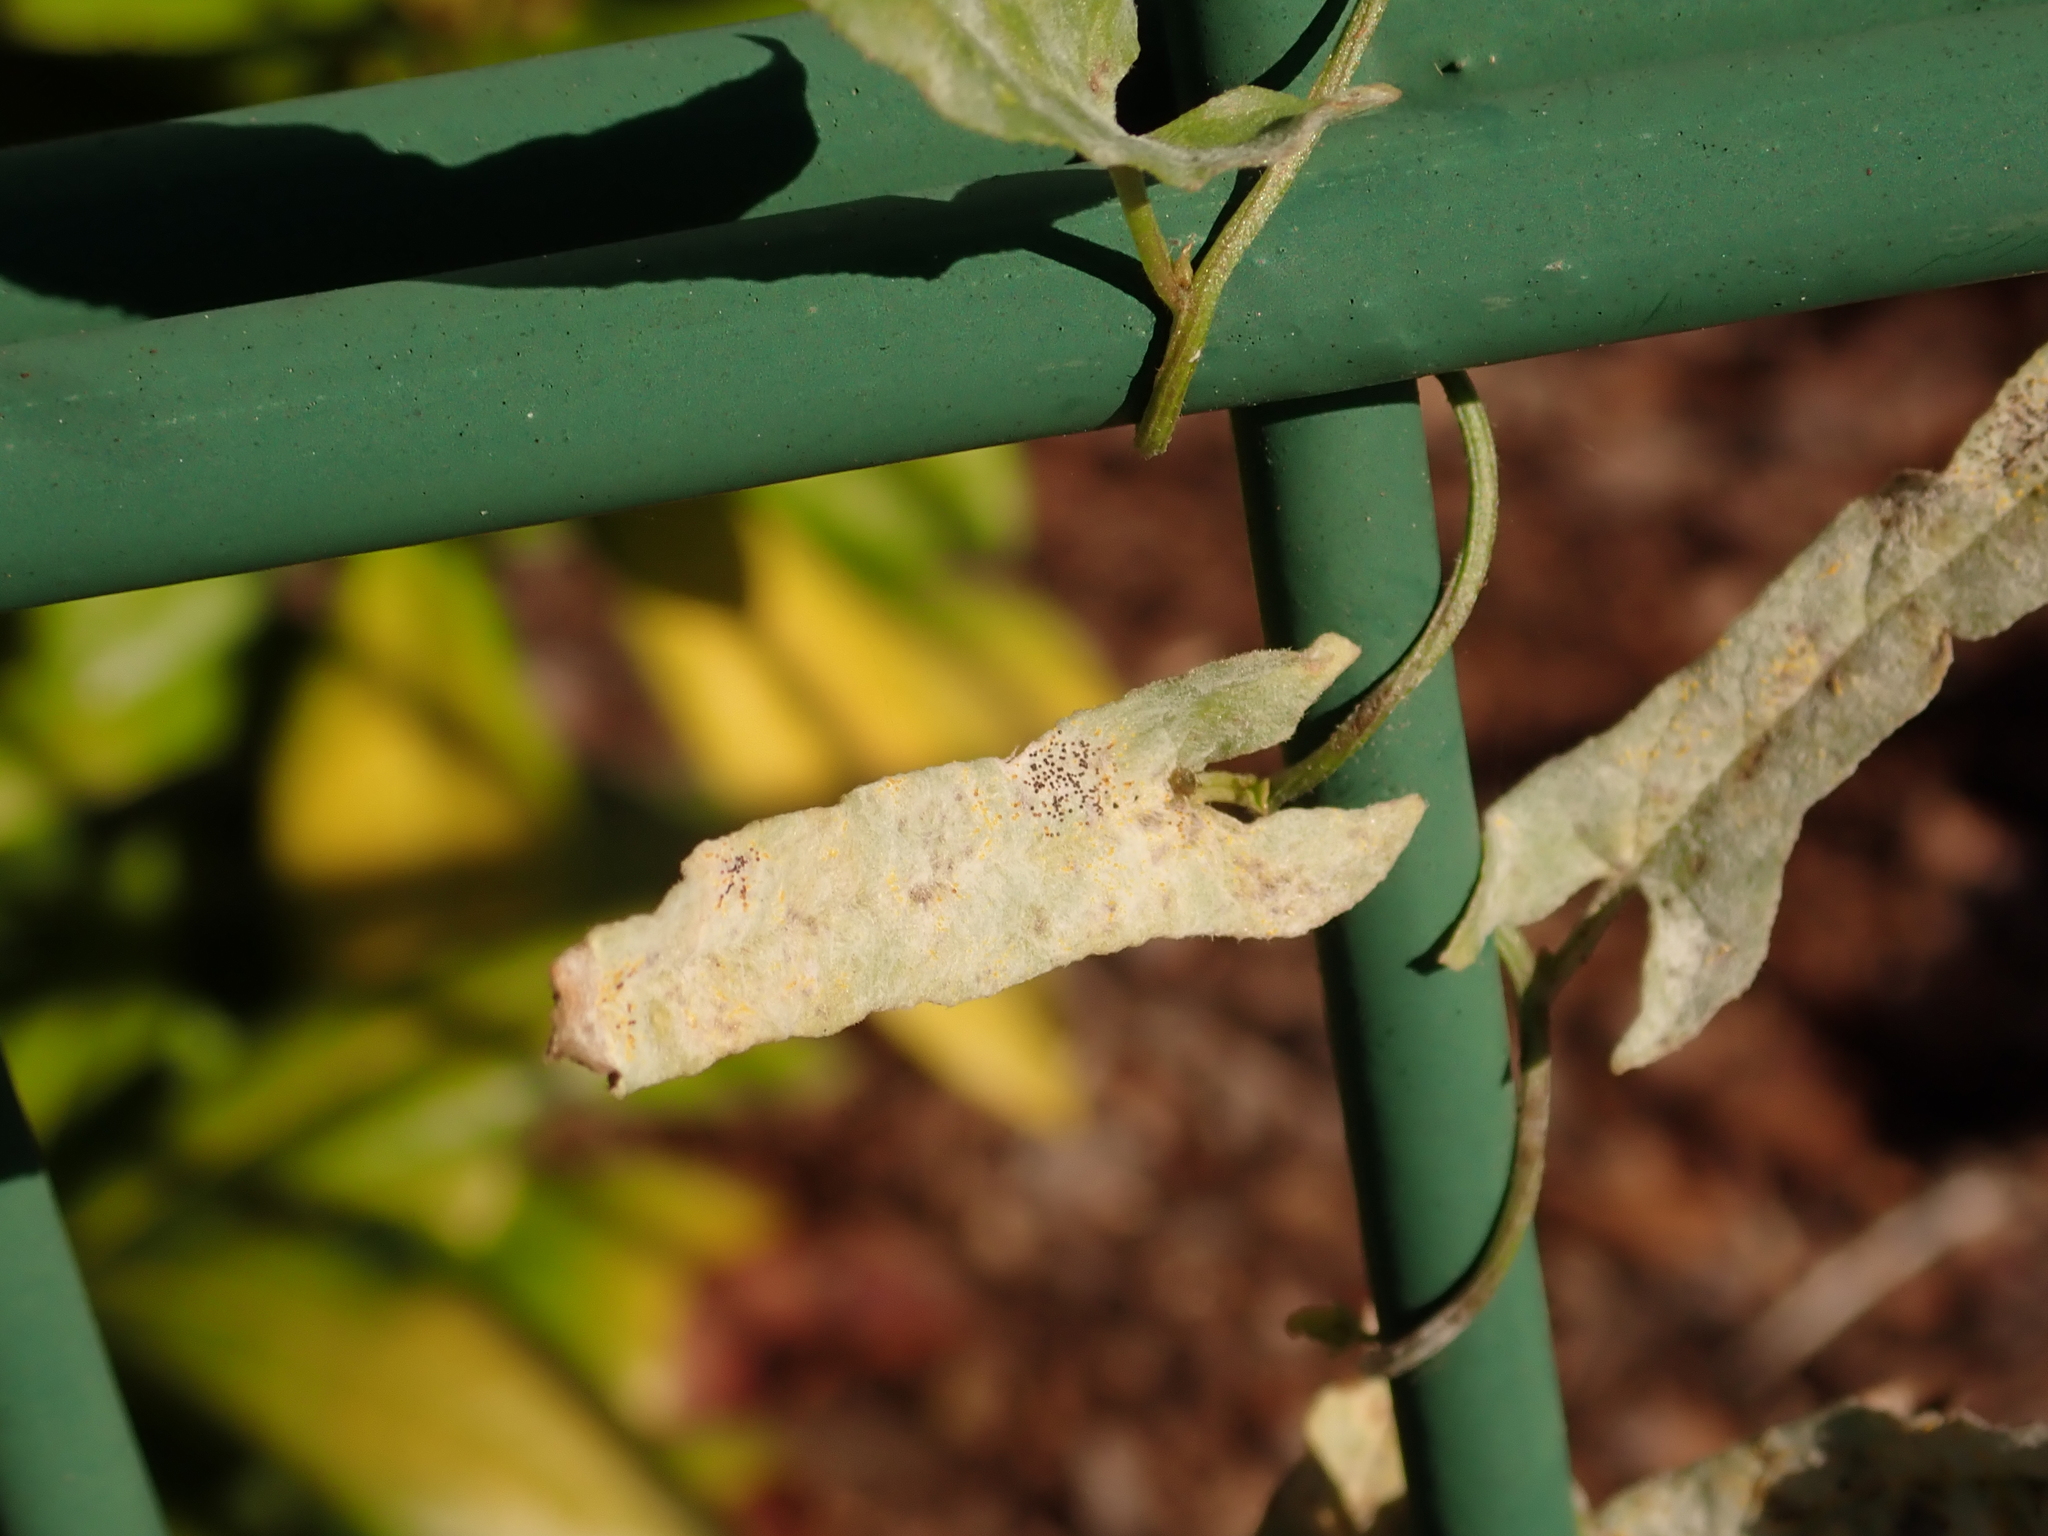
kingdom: Fungi
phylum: Ascomycota
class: Leotiomycetes
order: Helotiales
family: Erysiphaceae
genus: Erysiphe
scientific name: Erysiphe convolvuli
